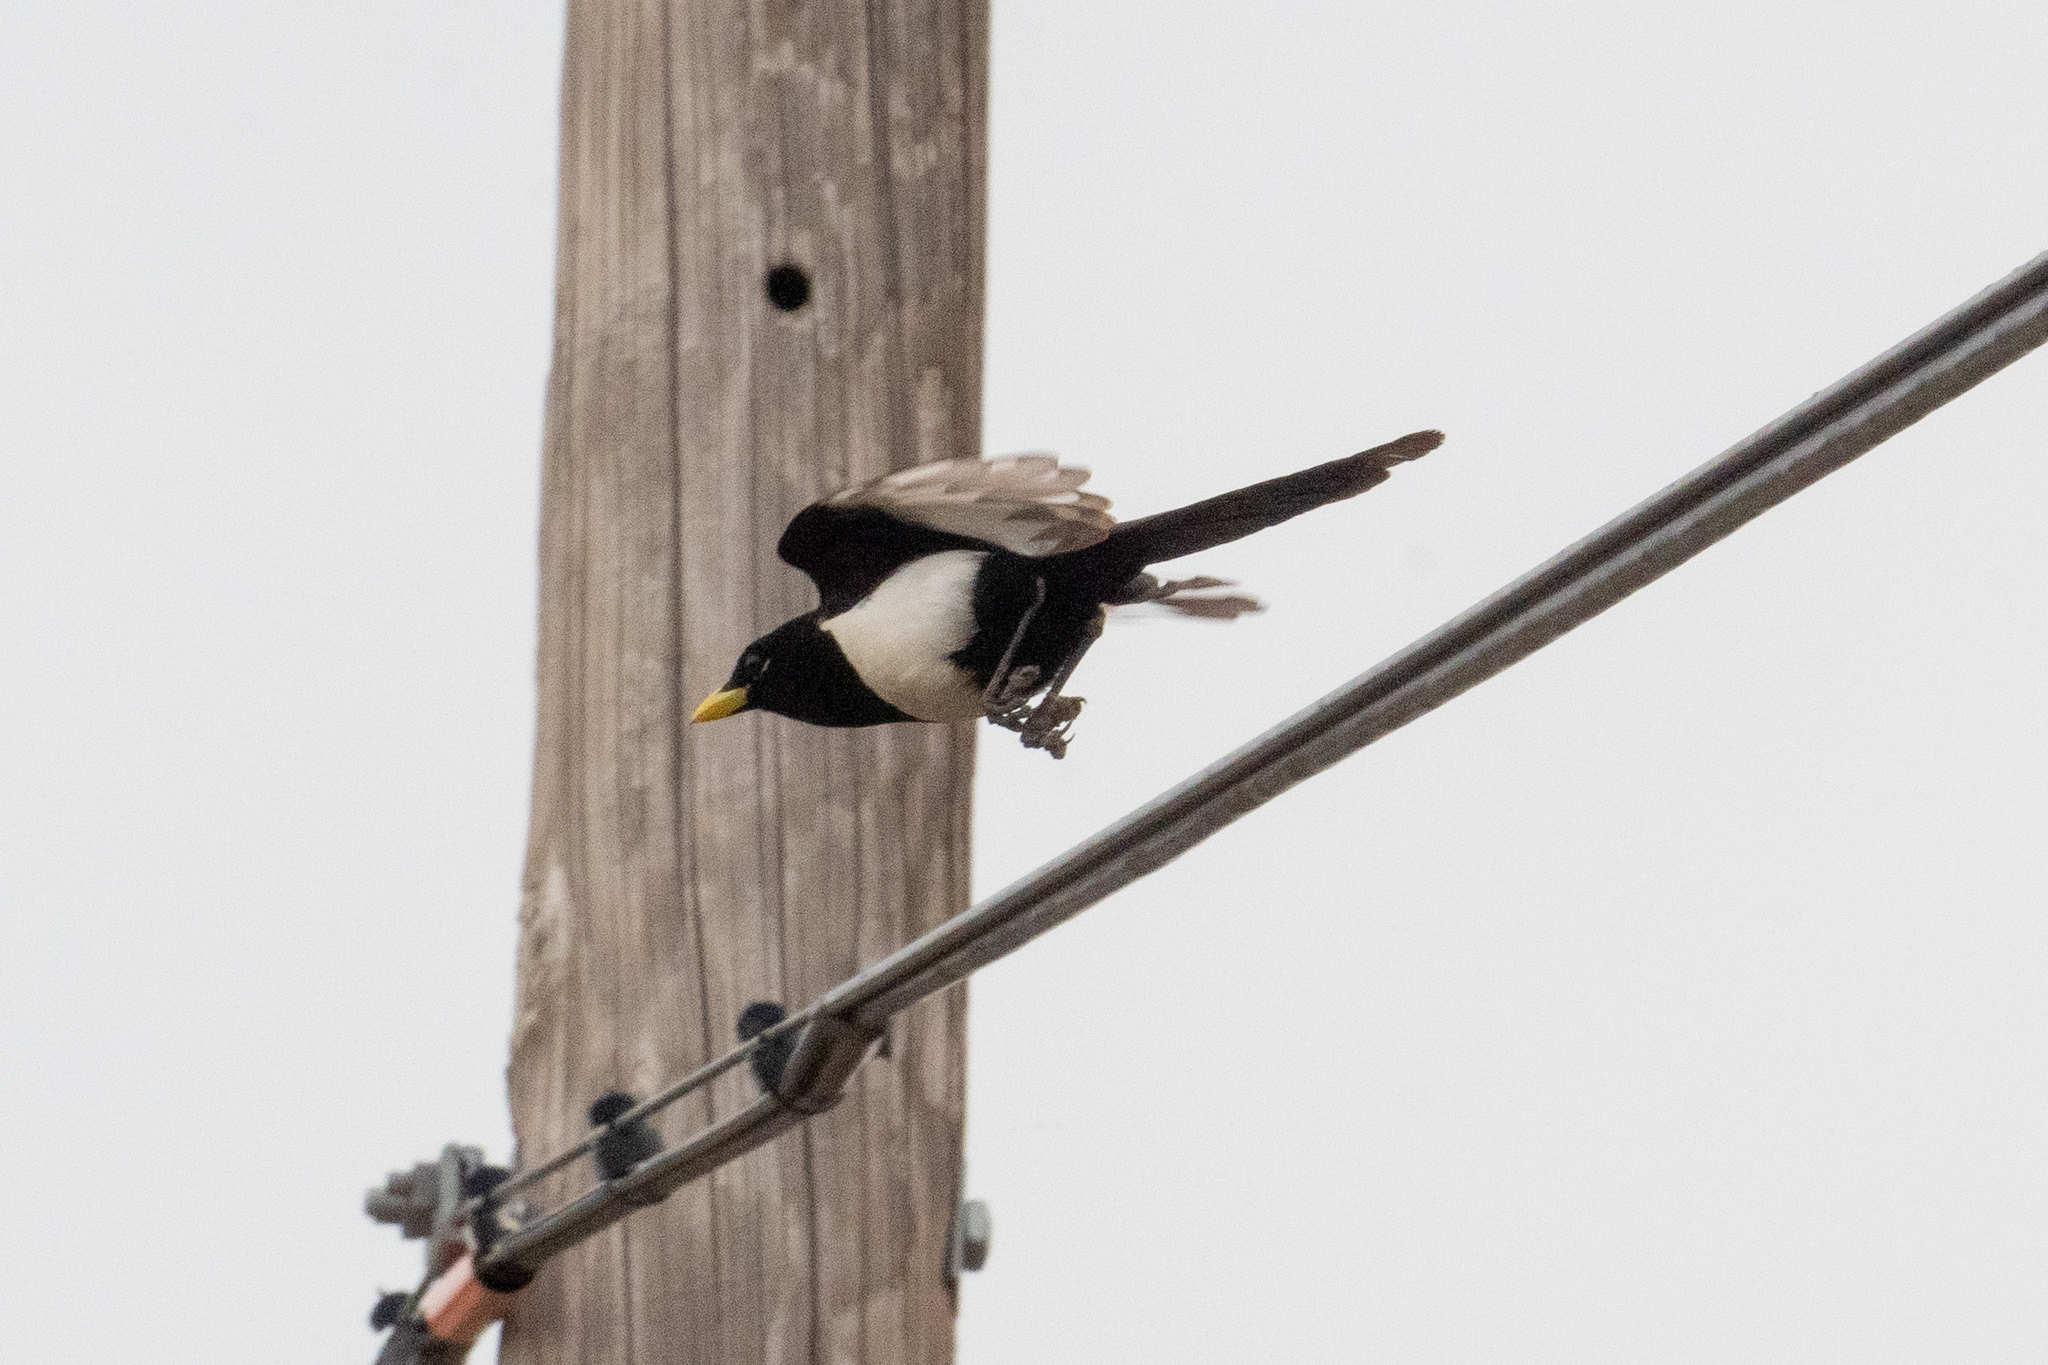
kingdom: Animalia
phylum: Chordata
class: Aves
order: Passeriformes
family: Corvidae
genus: Pica
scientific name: Pica nuttalli
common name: Yellow-billed magpie
